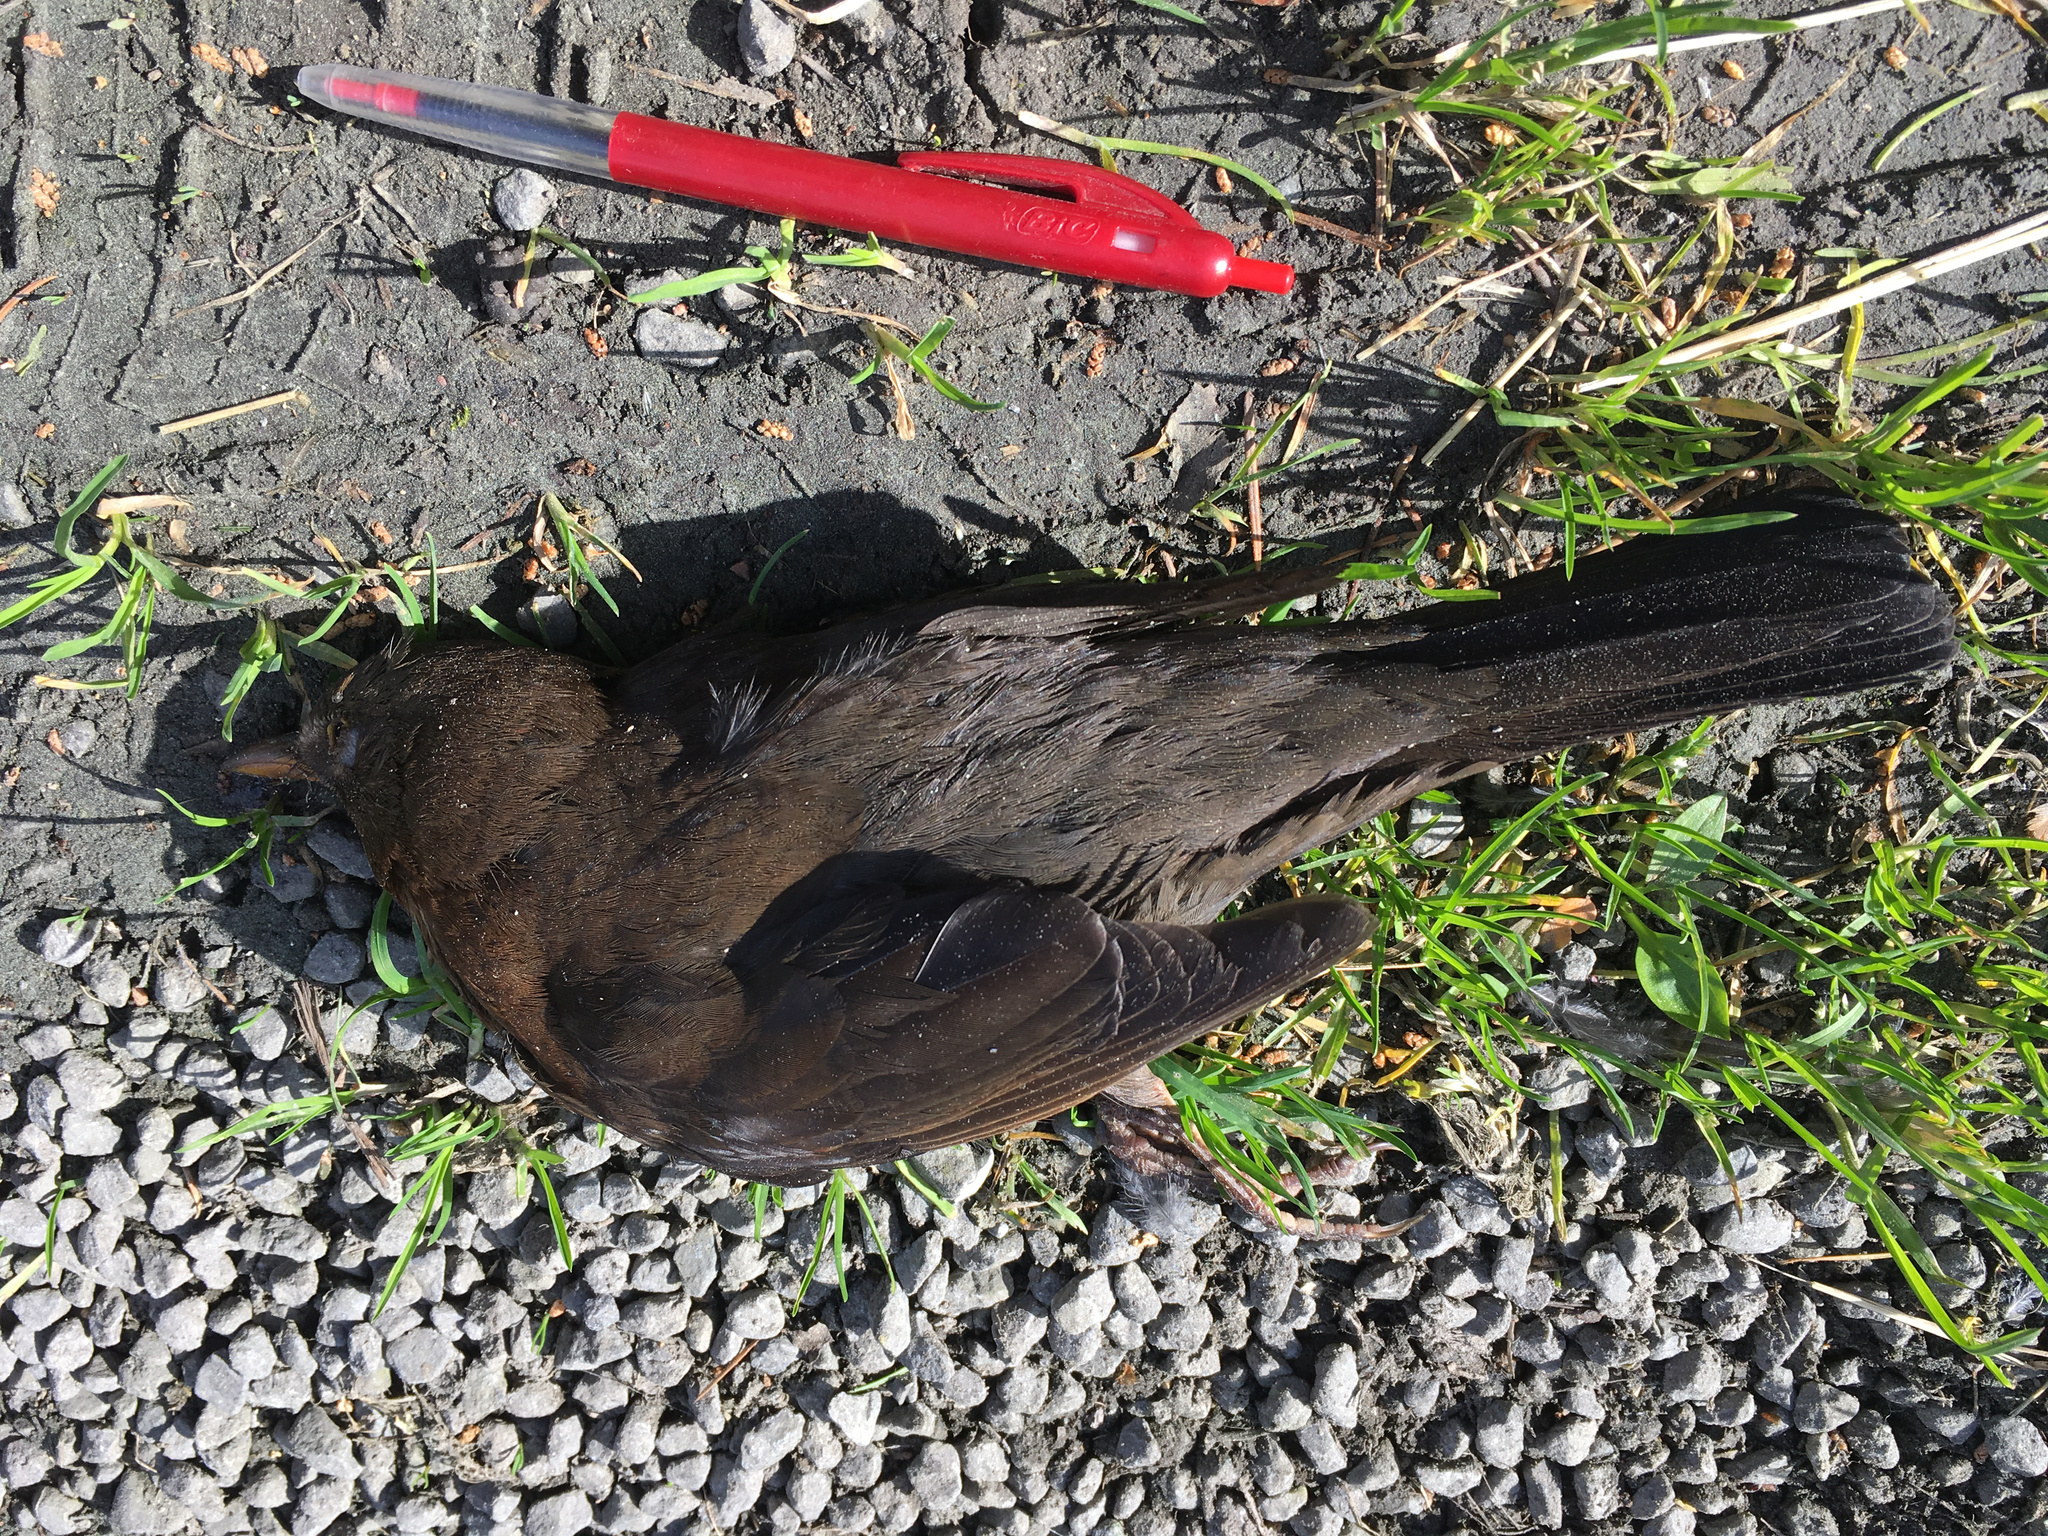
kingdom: Animalia
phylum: Chordata
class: Aves
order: Passeriformes
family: Turdidae
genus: Turdus
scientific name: Turdus merula
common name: Common blackbird
